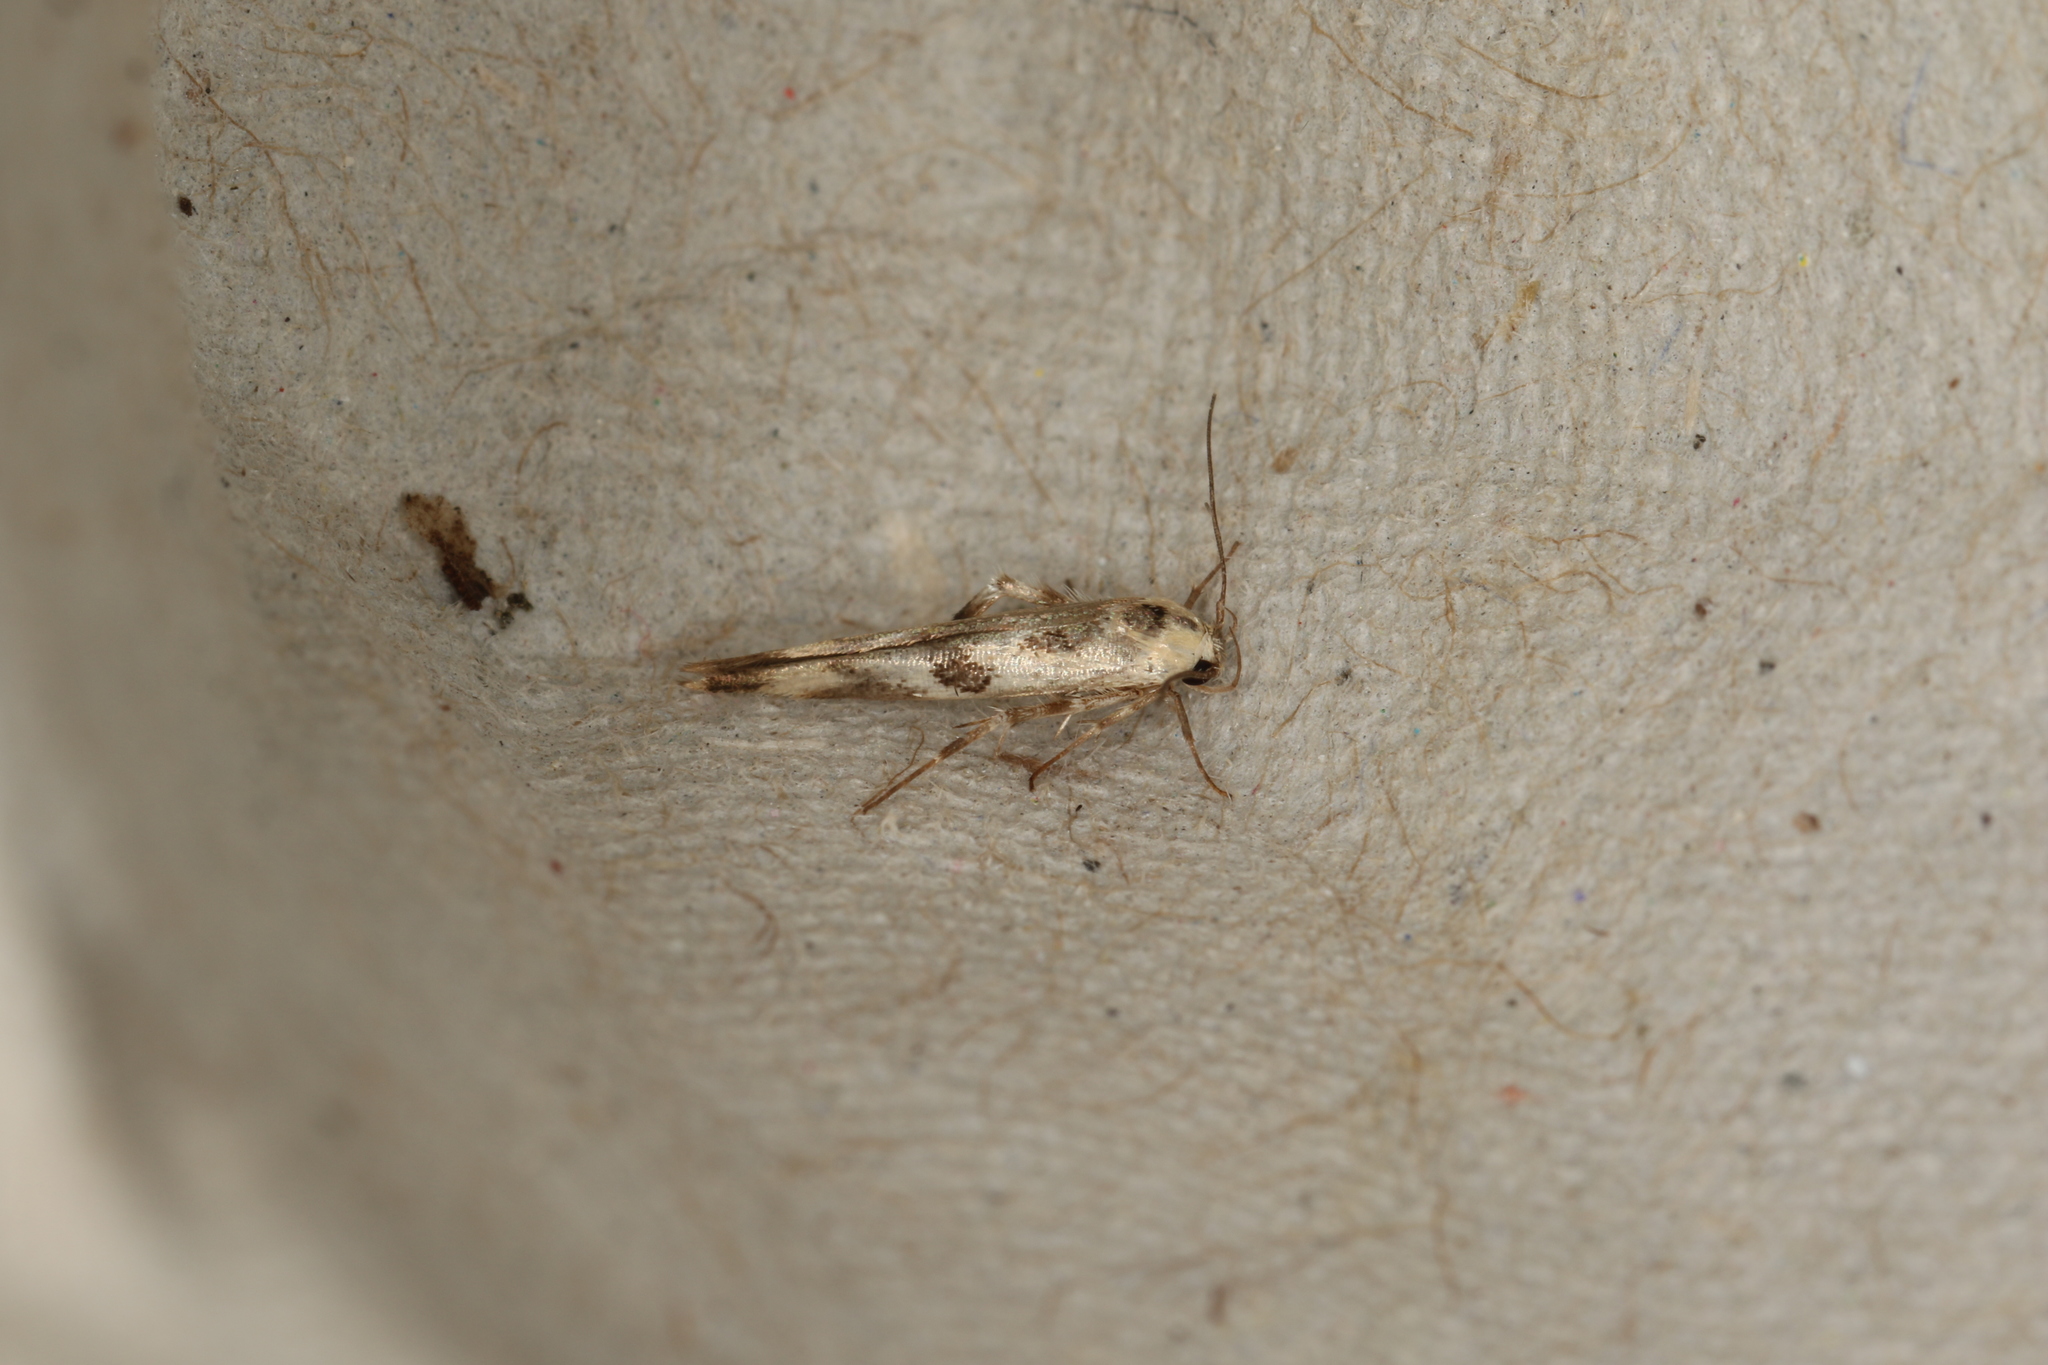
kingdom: Animalia
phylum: Arthropoda
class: Insecta
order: Lepidoptera
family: Stathmopodidae
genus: Stathmopoda
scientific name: Stathmopoda melanochra
